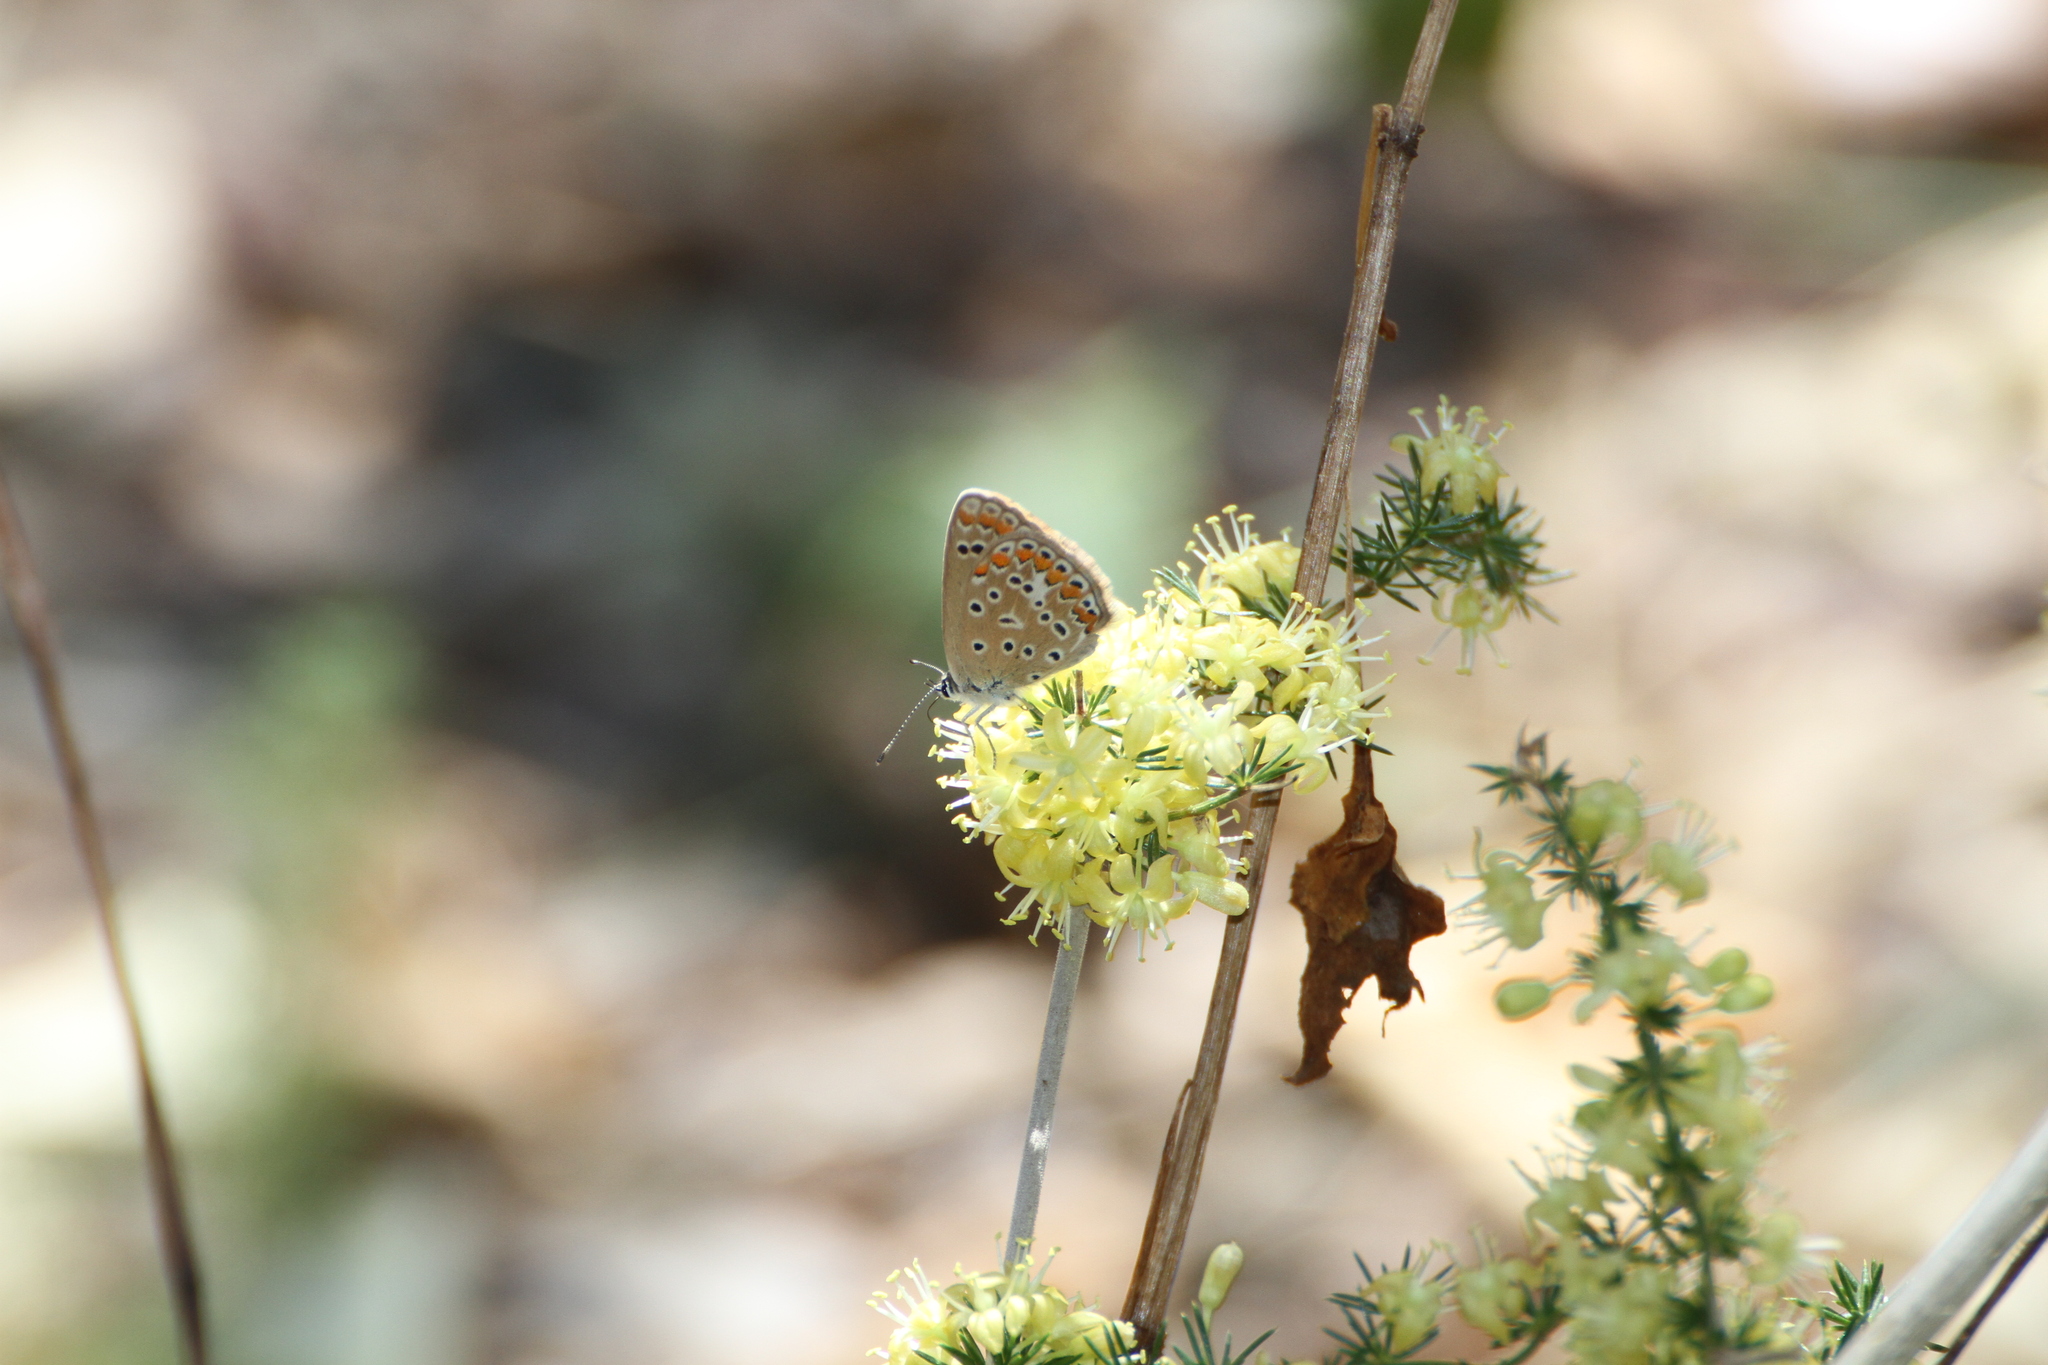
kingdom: Animalia
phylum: Arthropoda
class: Insecta
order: Lepidoptera
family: Lycaenidae
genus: Aricia
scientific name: Aricia agestis
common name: Brown argus
